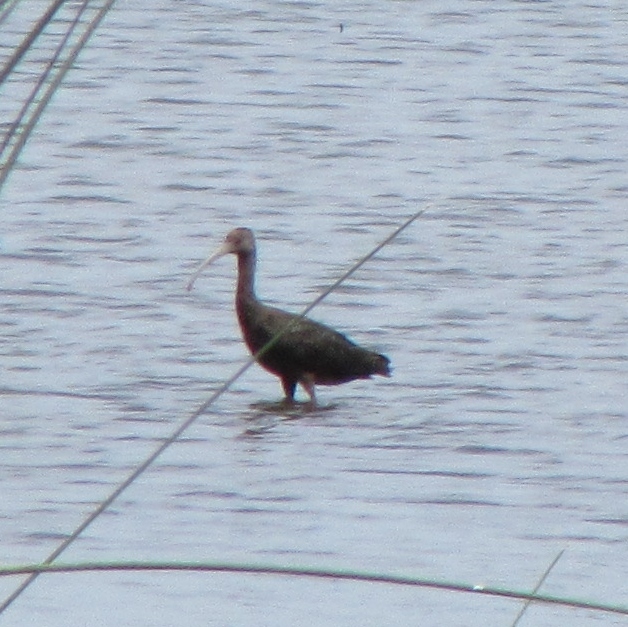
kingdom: Animalia
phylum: Chordata
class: Aves
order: Pelecaniformes
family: Threskiornithidae
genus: Plegadis
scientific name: Plegadis chihi
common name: White-faced ibis
